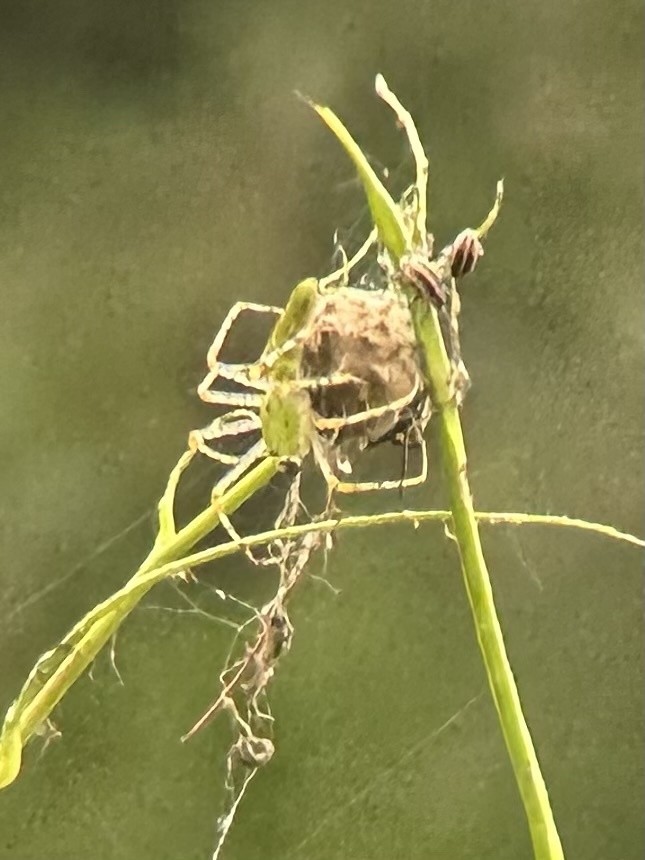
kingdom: Animalia
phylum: Arthropoda
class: Arachnida
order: Araneae
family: Oxyopidae
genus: Peucetia
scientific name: Peucetia viridans
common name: Lynx spiders
